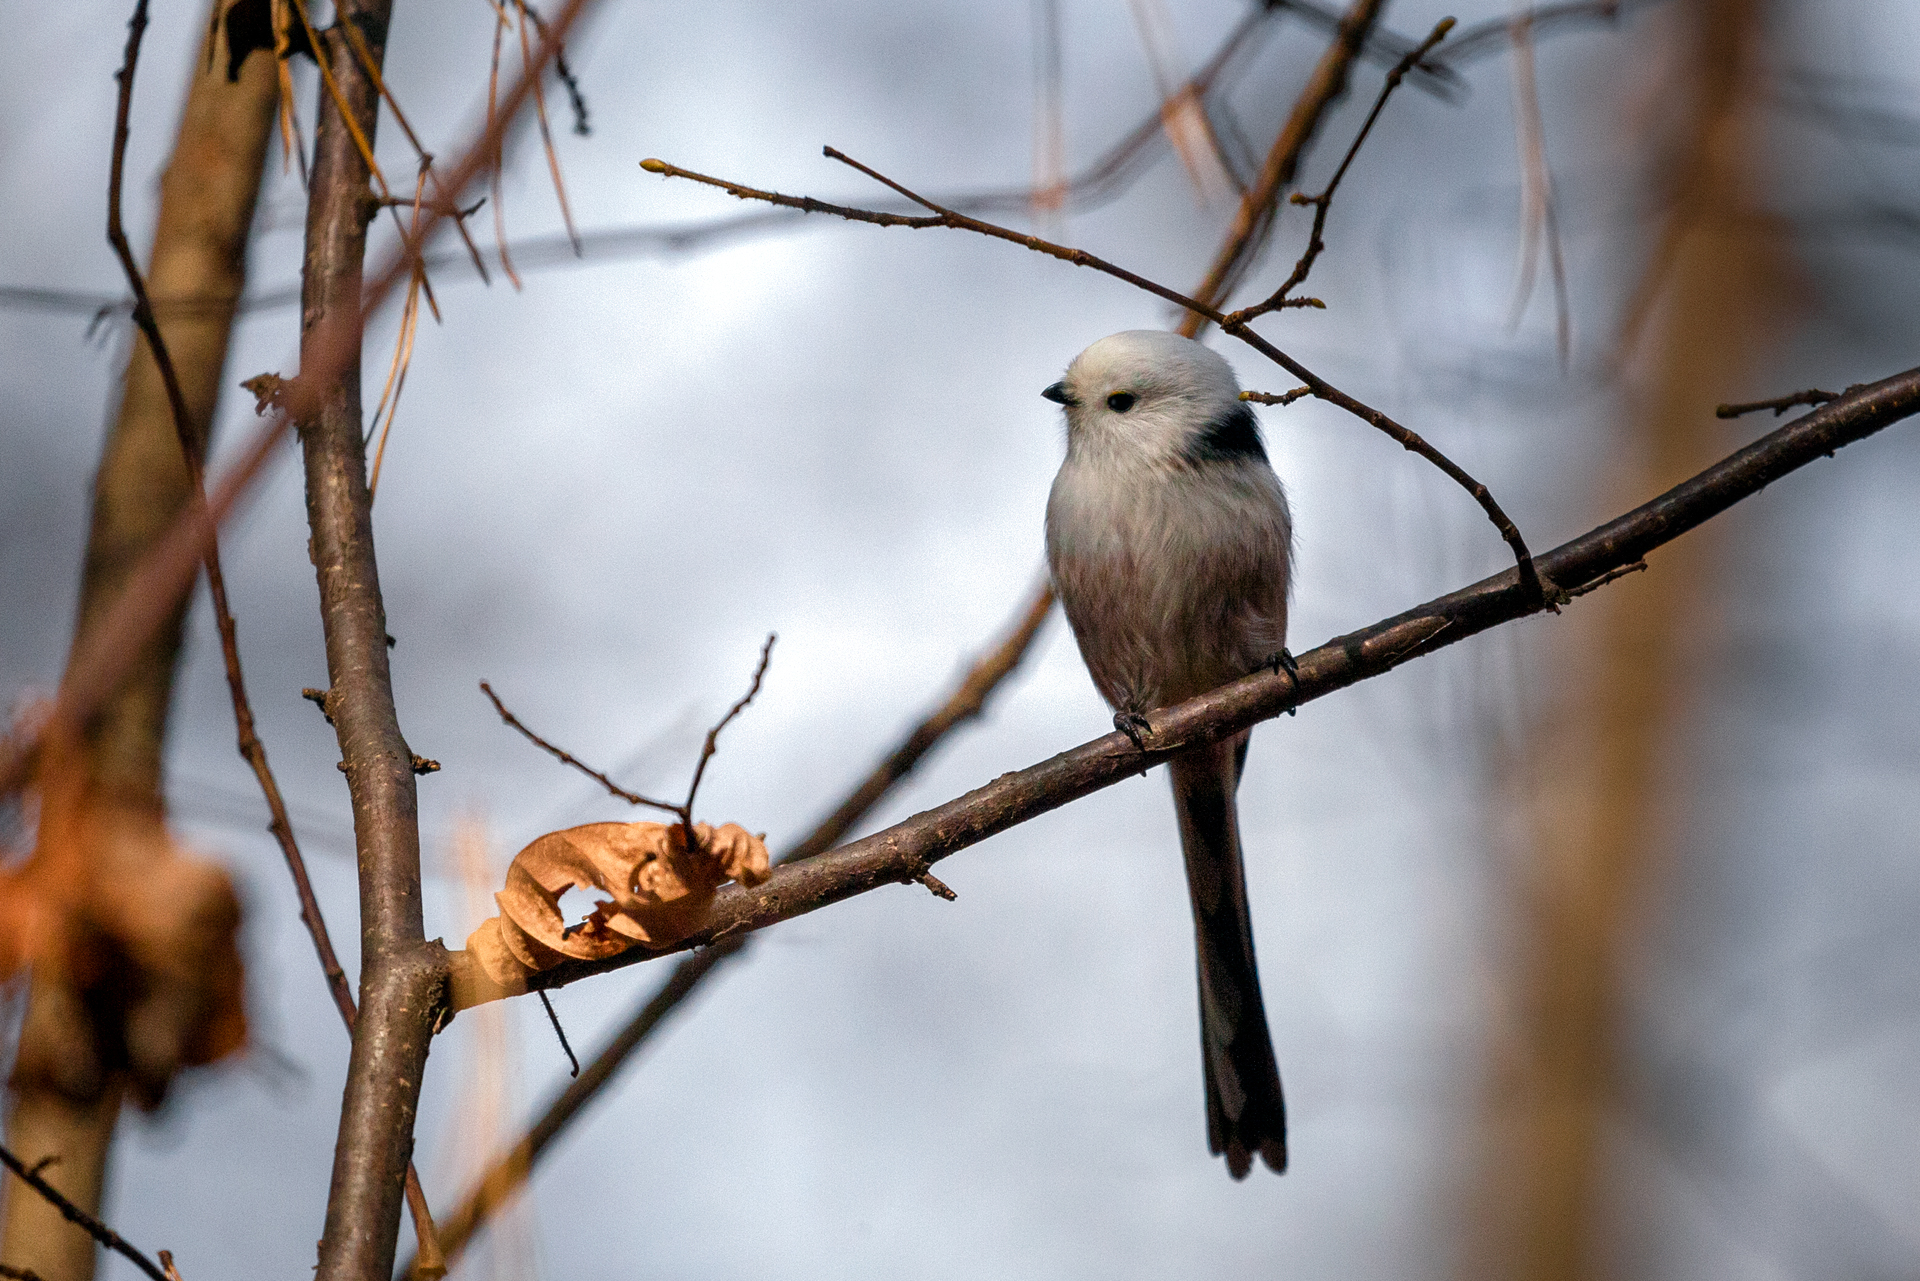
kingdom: Animalia
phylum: Chordata
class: Aves
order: Passeriformes
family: Aegithalidae
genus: Aegithalos
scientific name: Aegithalos caudatus
